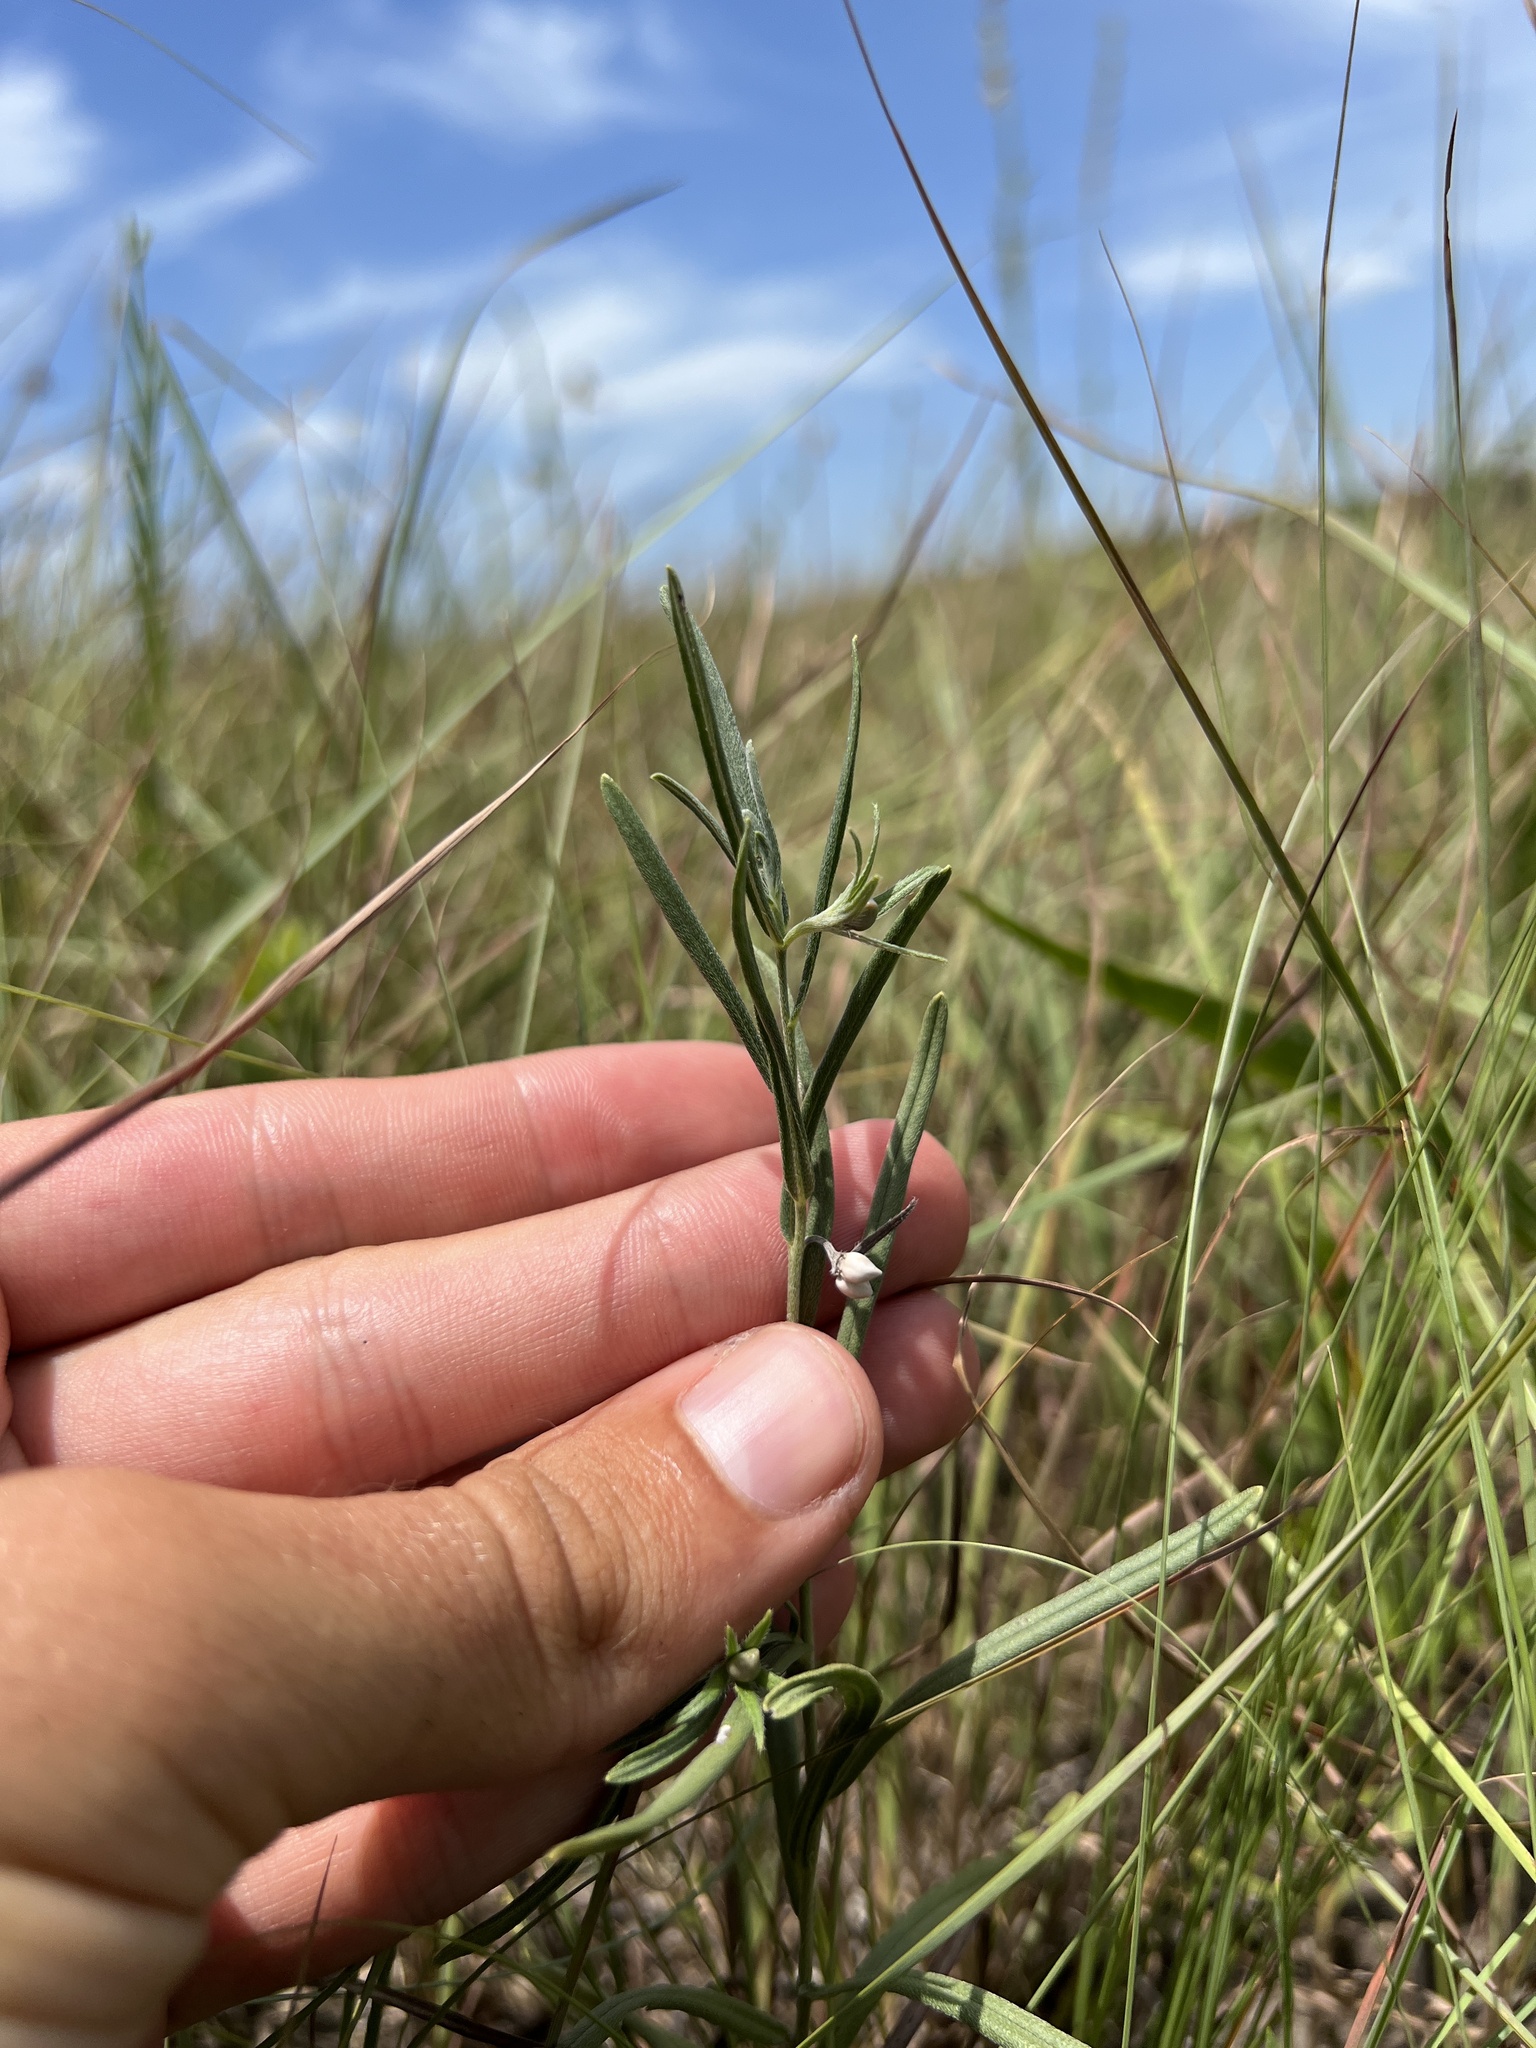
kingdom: Plantae
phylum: Tracheophyta
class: Magnoliopsida
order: Boraginales
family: Boraginaceae
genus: Lithospermum
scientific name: Lithospermum incisum
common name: Fringed gromwell
